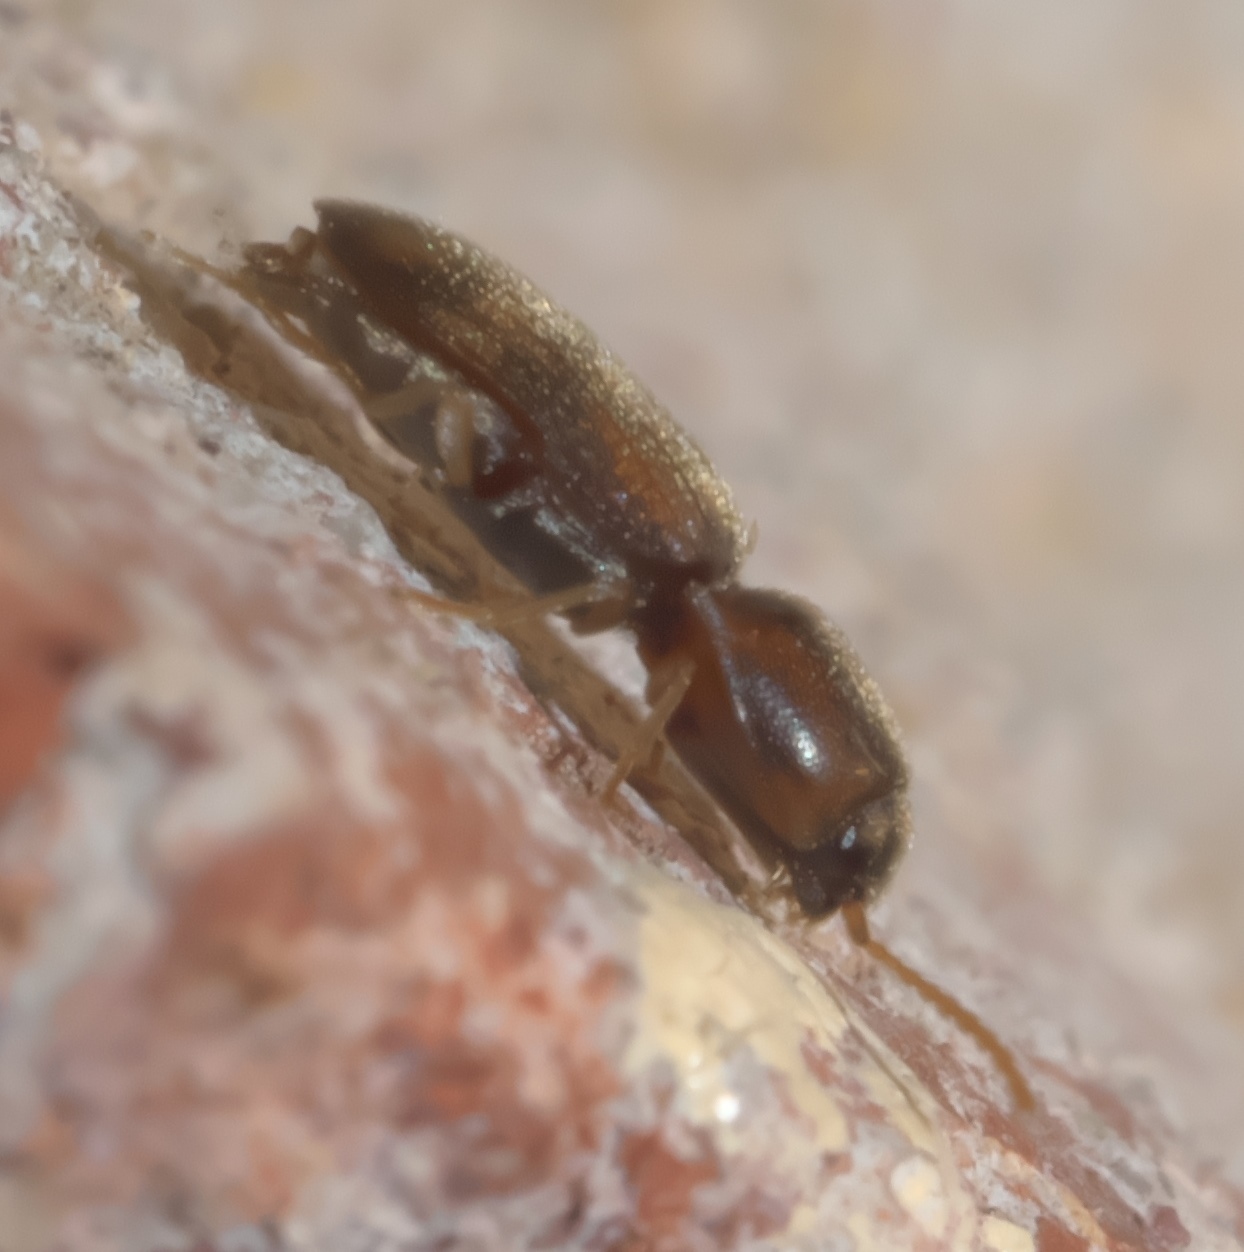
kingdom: Animalia
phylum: Arthropoda
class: Insecta
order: Coleoptera
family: Elateridae
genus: Monocrepidius
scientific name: Monocrepidius bellus
